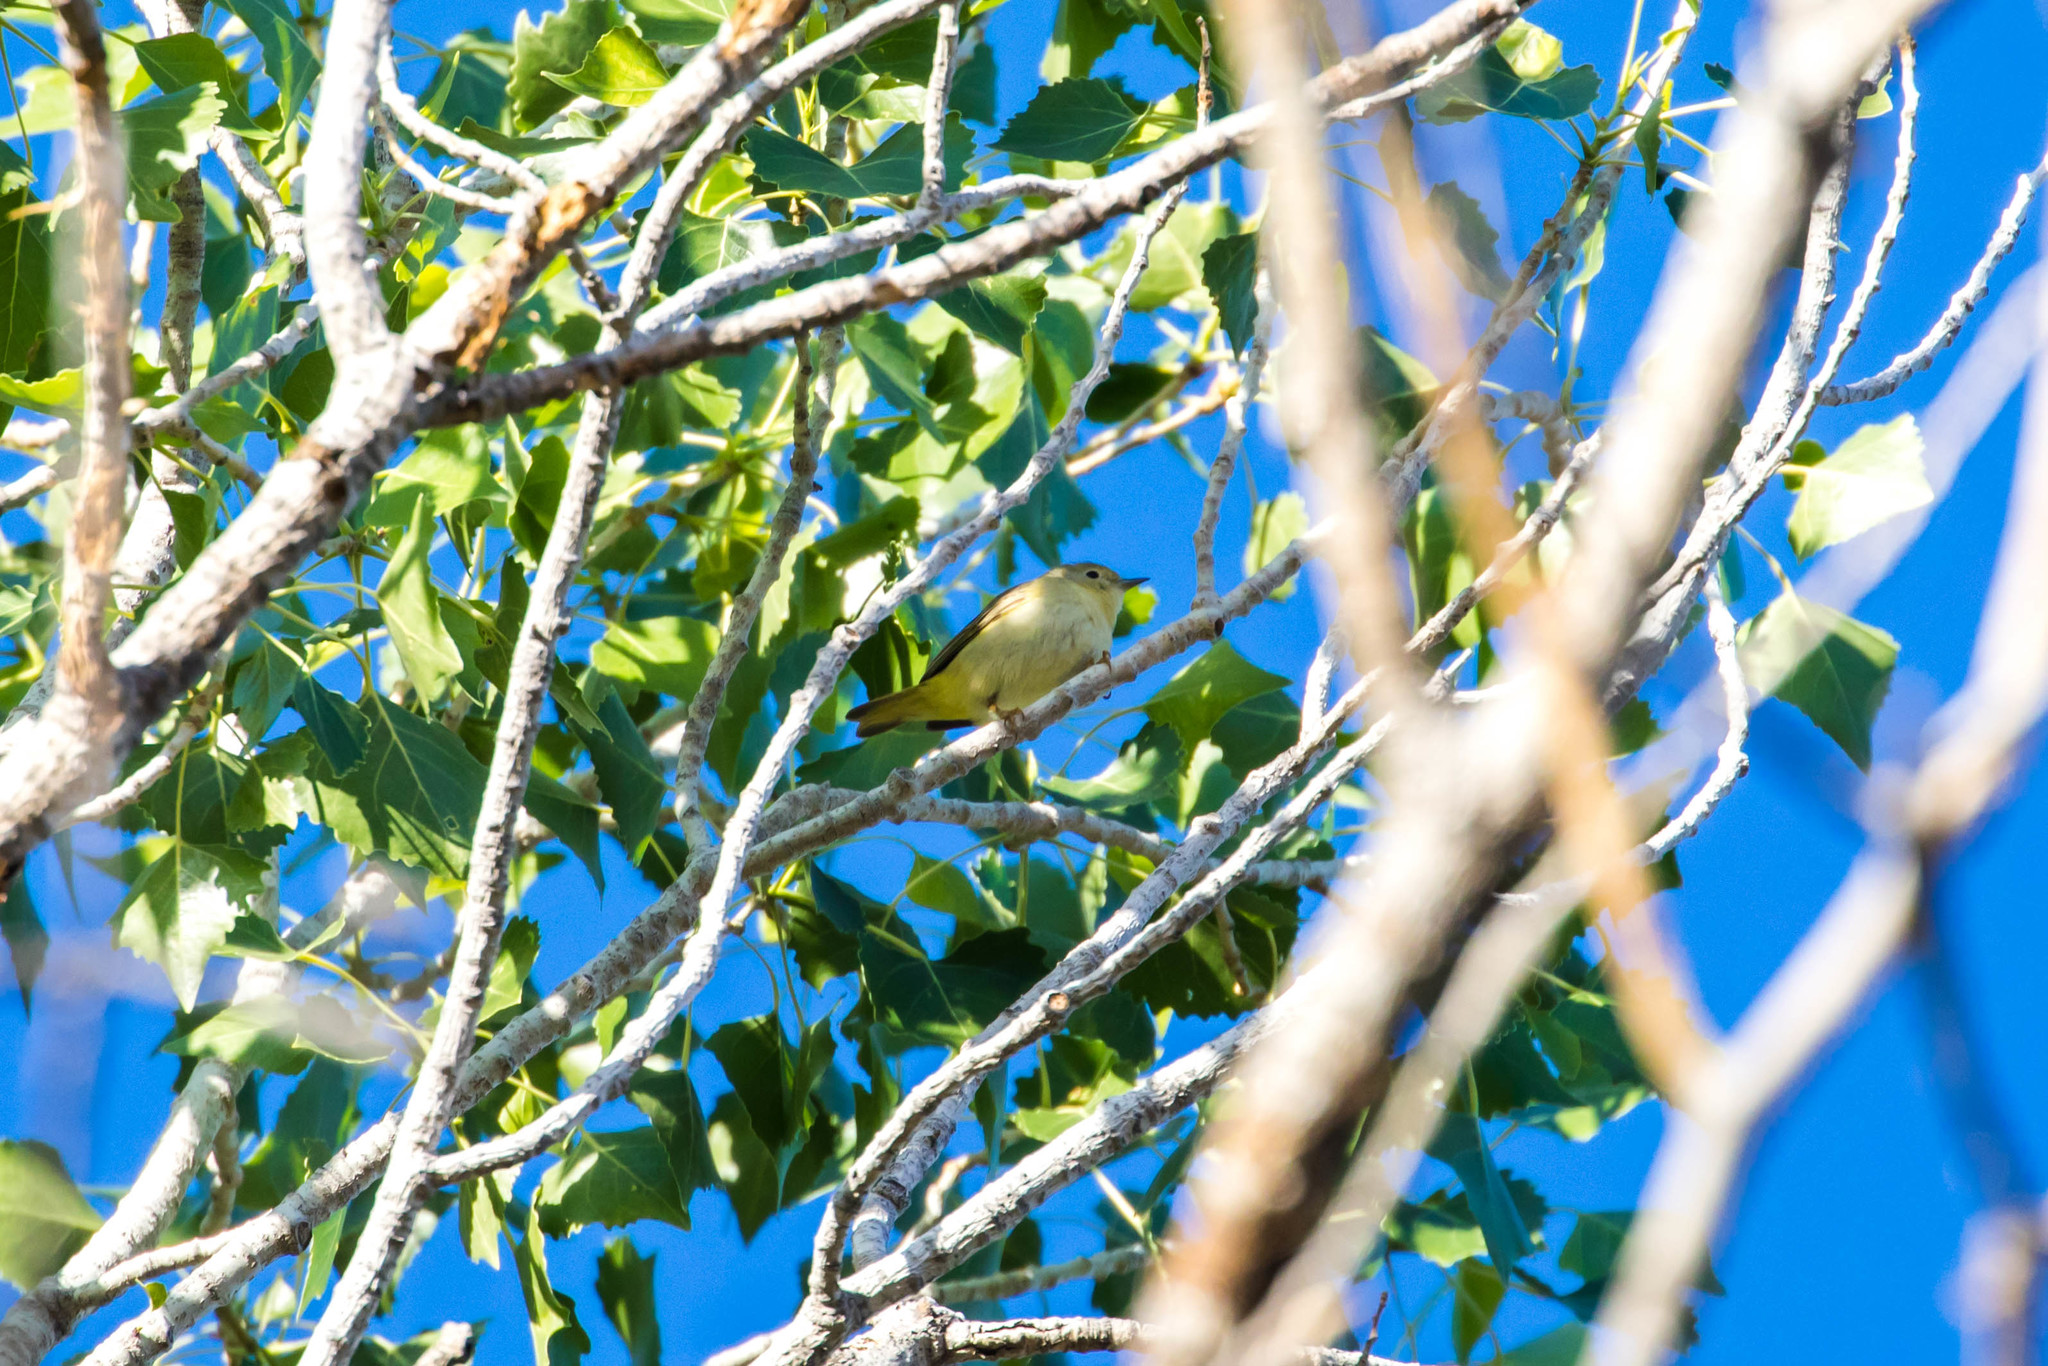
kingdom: Animalia
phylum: Chordata
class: Aves
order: Passeriformes
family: Parulidae
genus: Setophaga
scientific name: Setophaga petechia
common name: Yellow warbler
